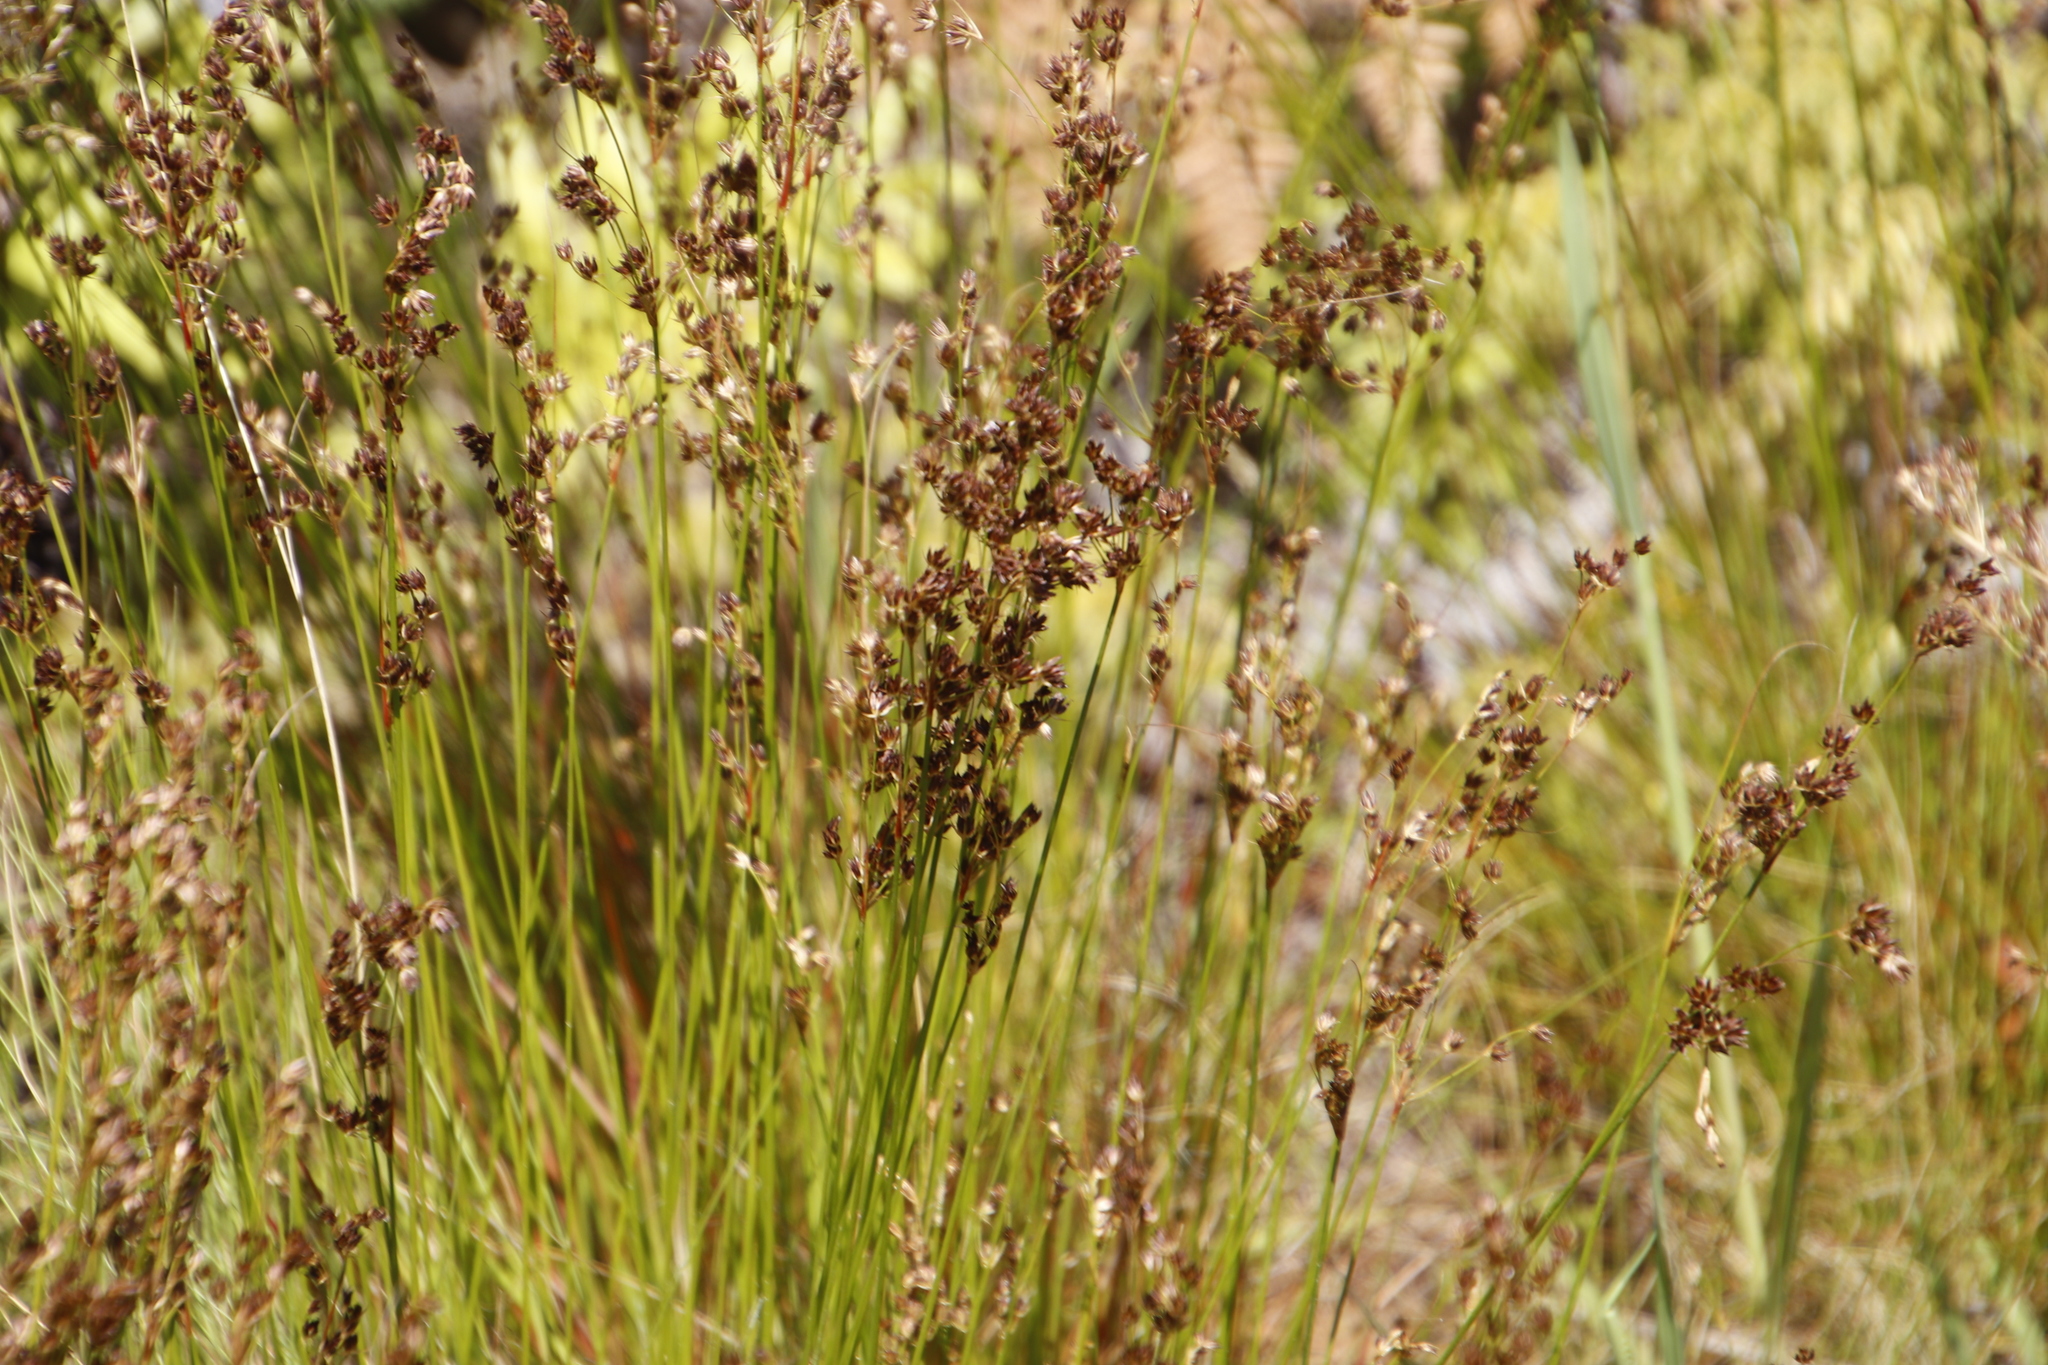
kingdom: Plantae
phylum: Tracheophyta
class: Liliopsida
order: Poales
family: Juncaceae
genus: Juncus
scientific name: Juncus lomatophyllus
